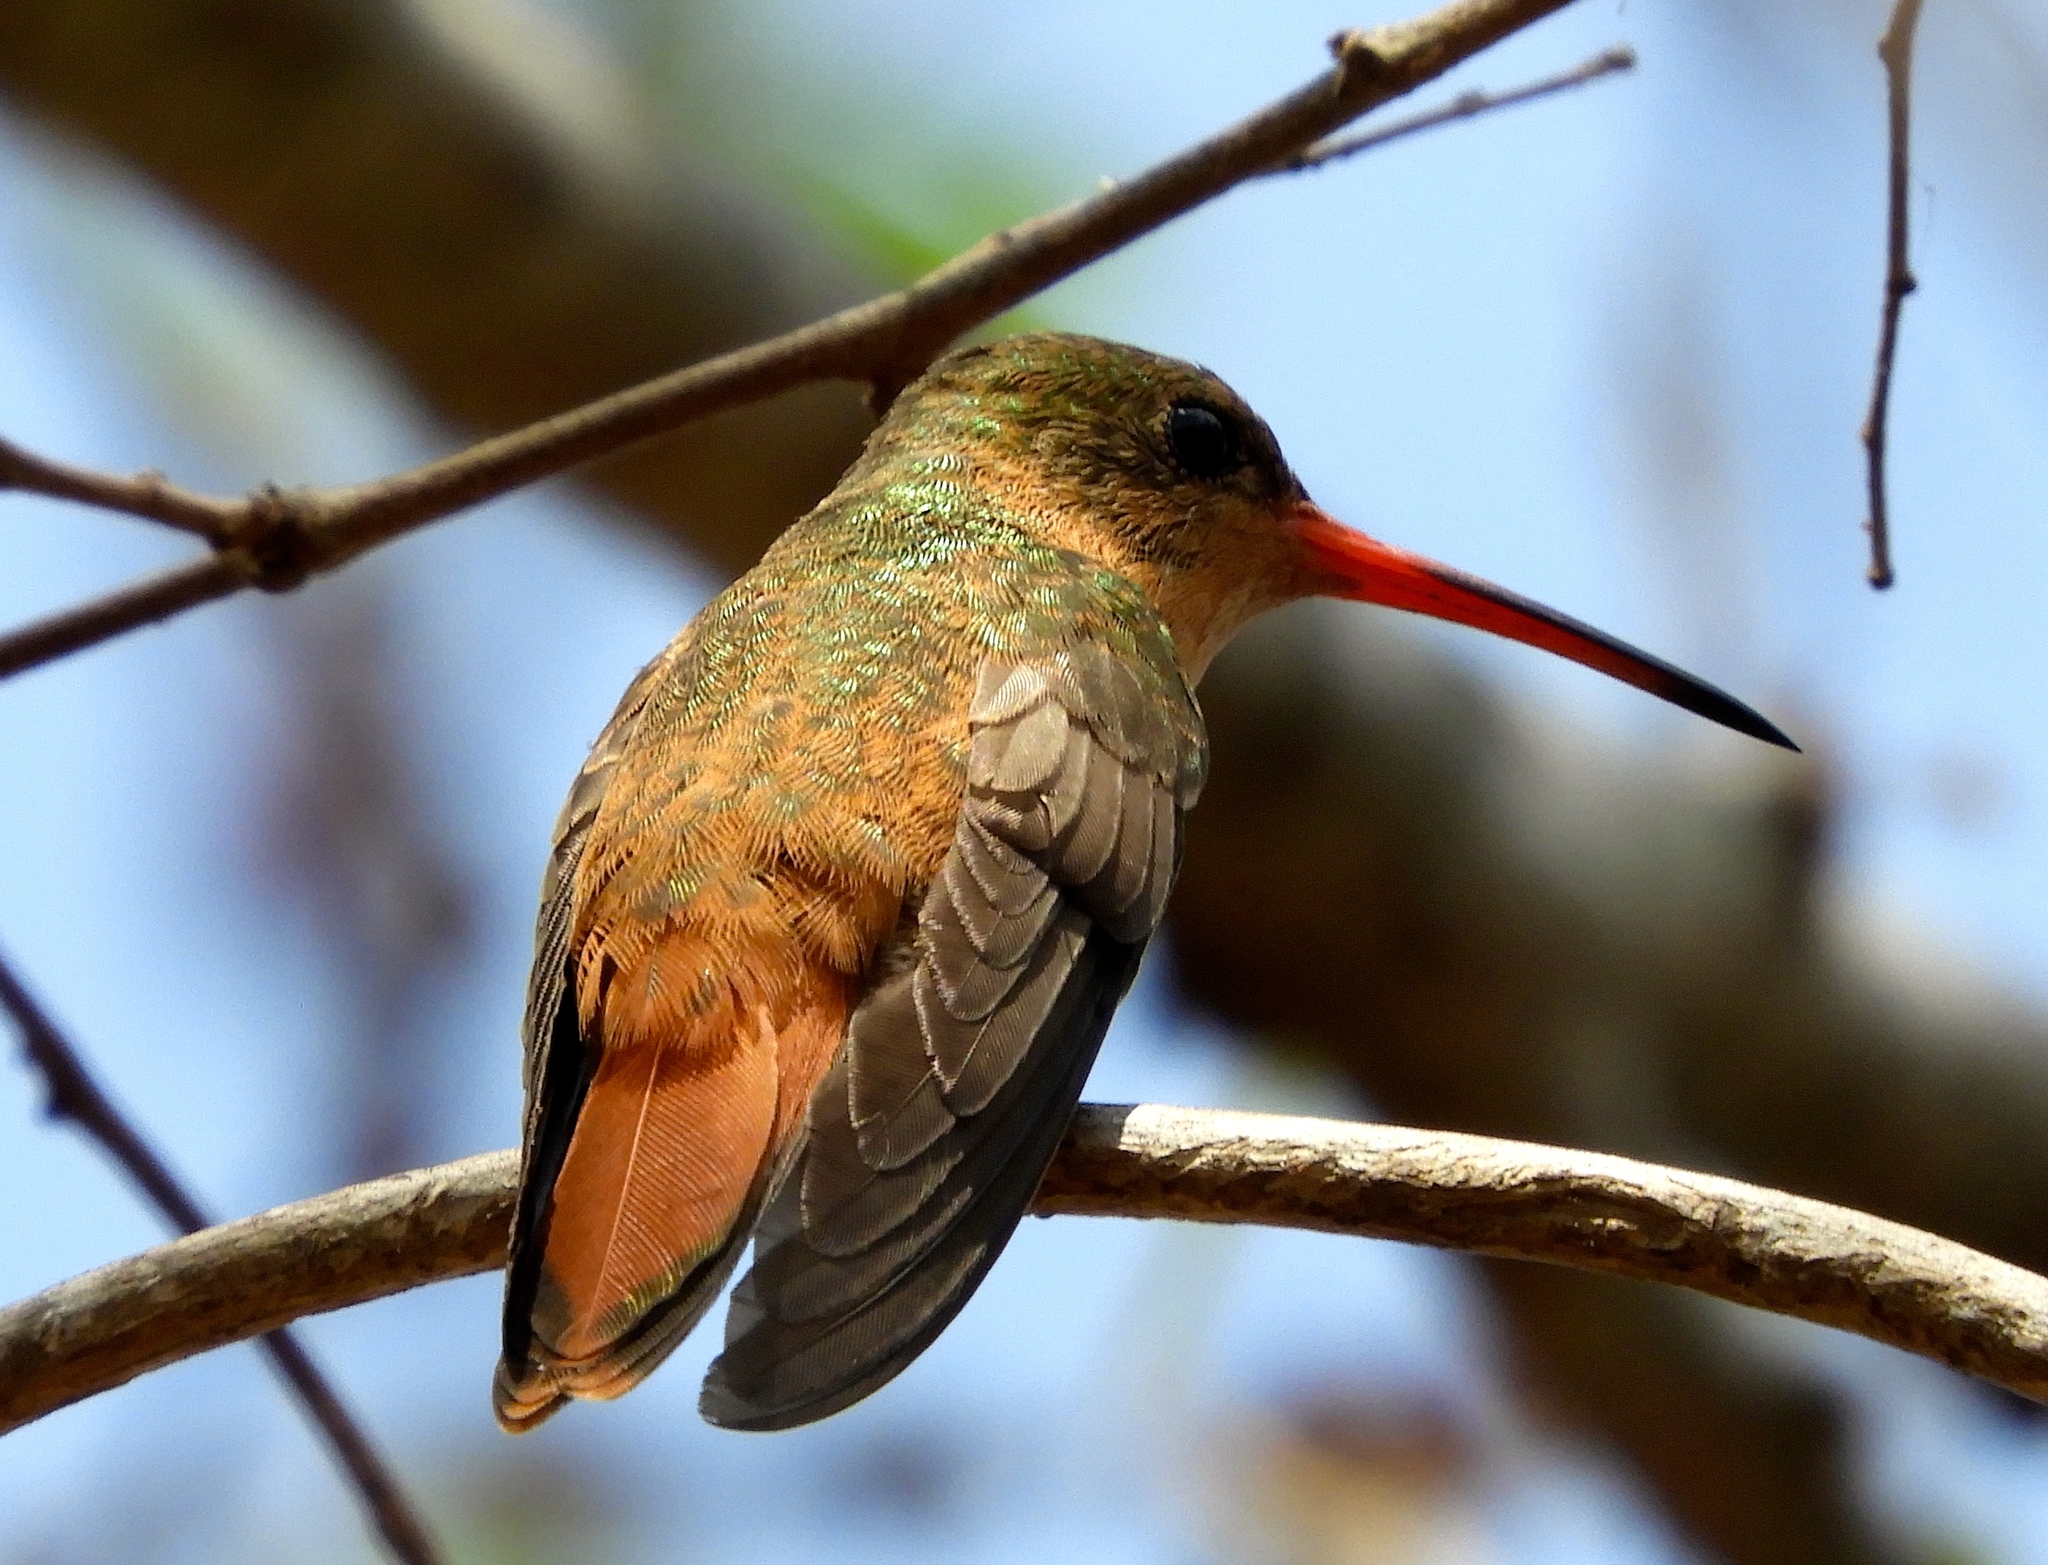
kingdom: Animalia
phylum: Chordata
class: Aves
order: Apodiformes
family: Trochilidae
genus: Amazilia
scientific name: Amazilia rutila
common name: Cinnamon hummingbird
